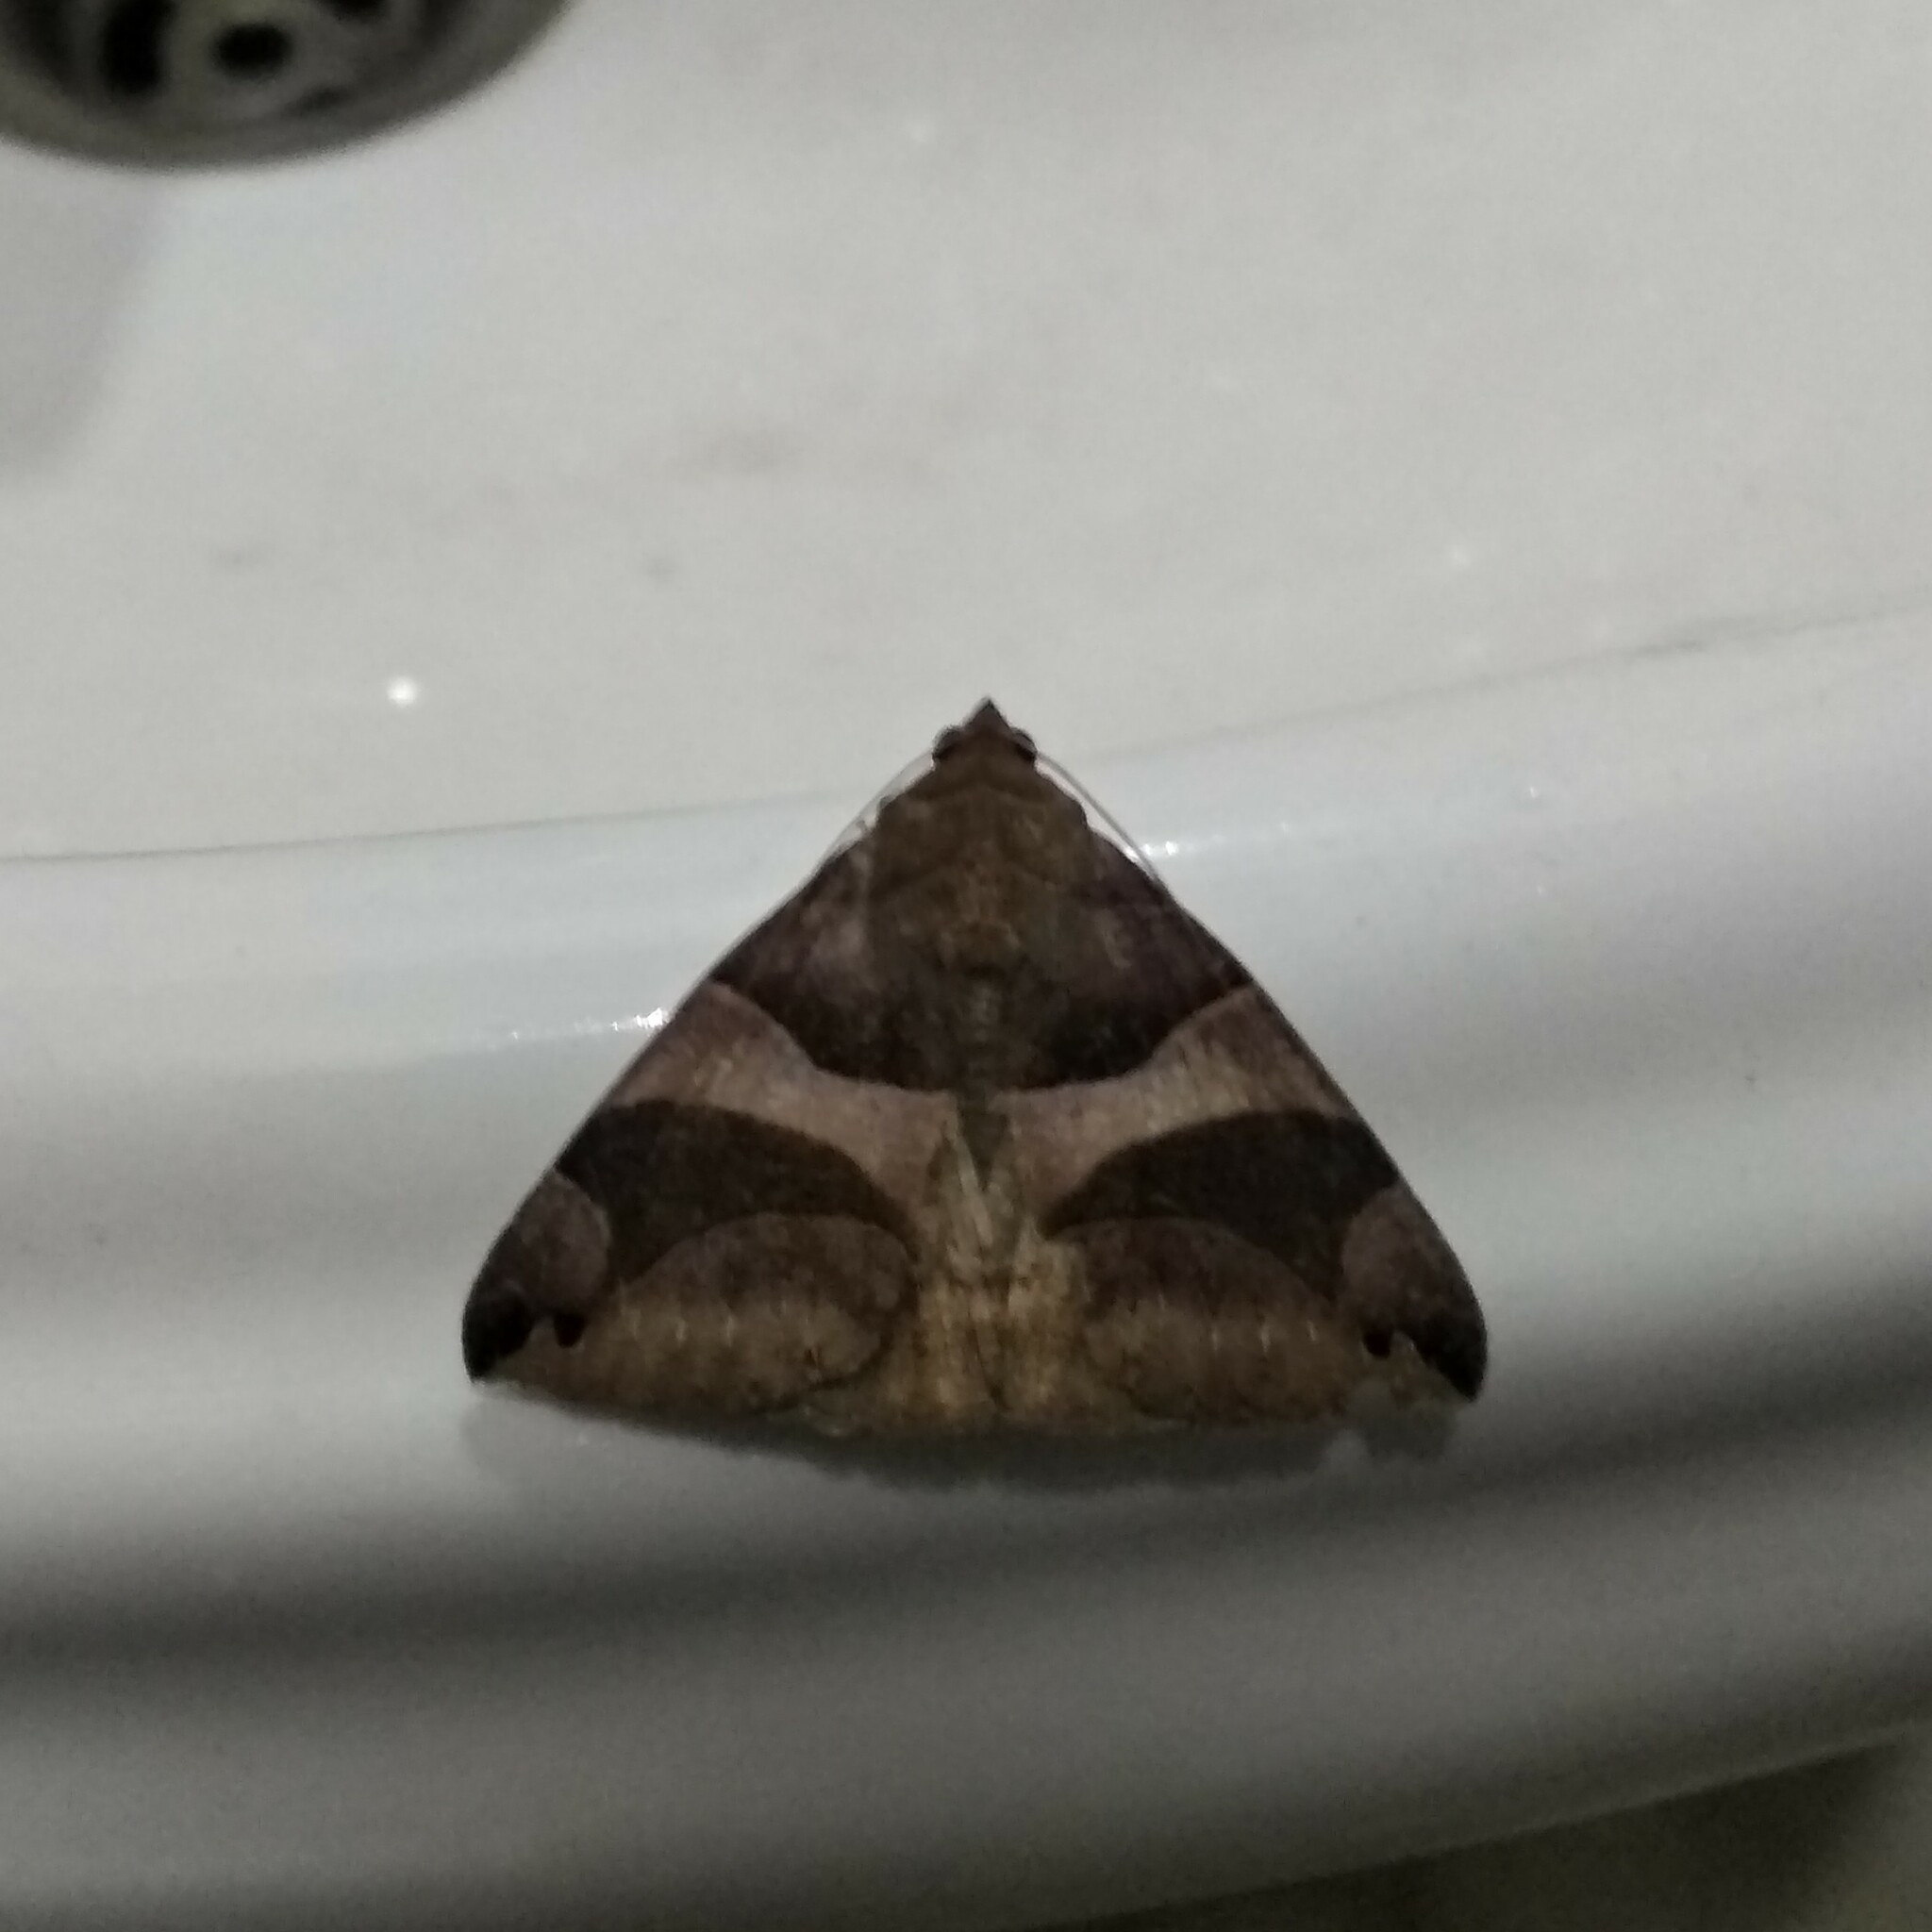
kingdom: Animalia
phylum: Arthropoda
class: Insecta
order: Lepidoptera
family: Erebidae
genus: Bastilla
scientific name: Bastilla arcuata
